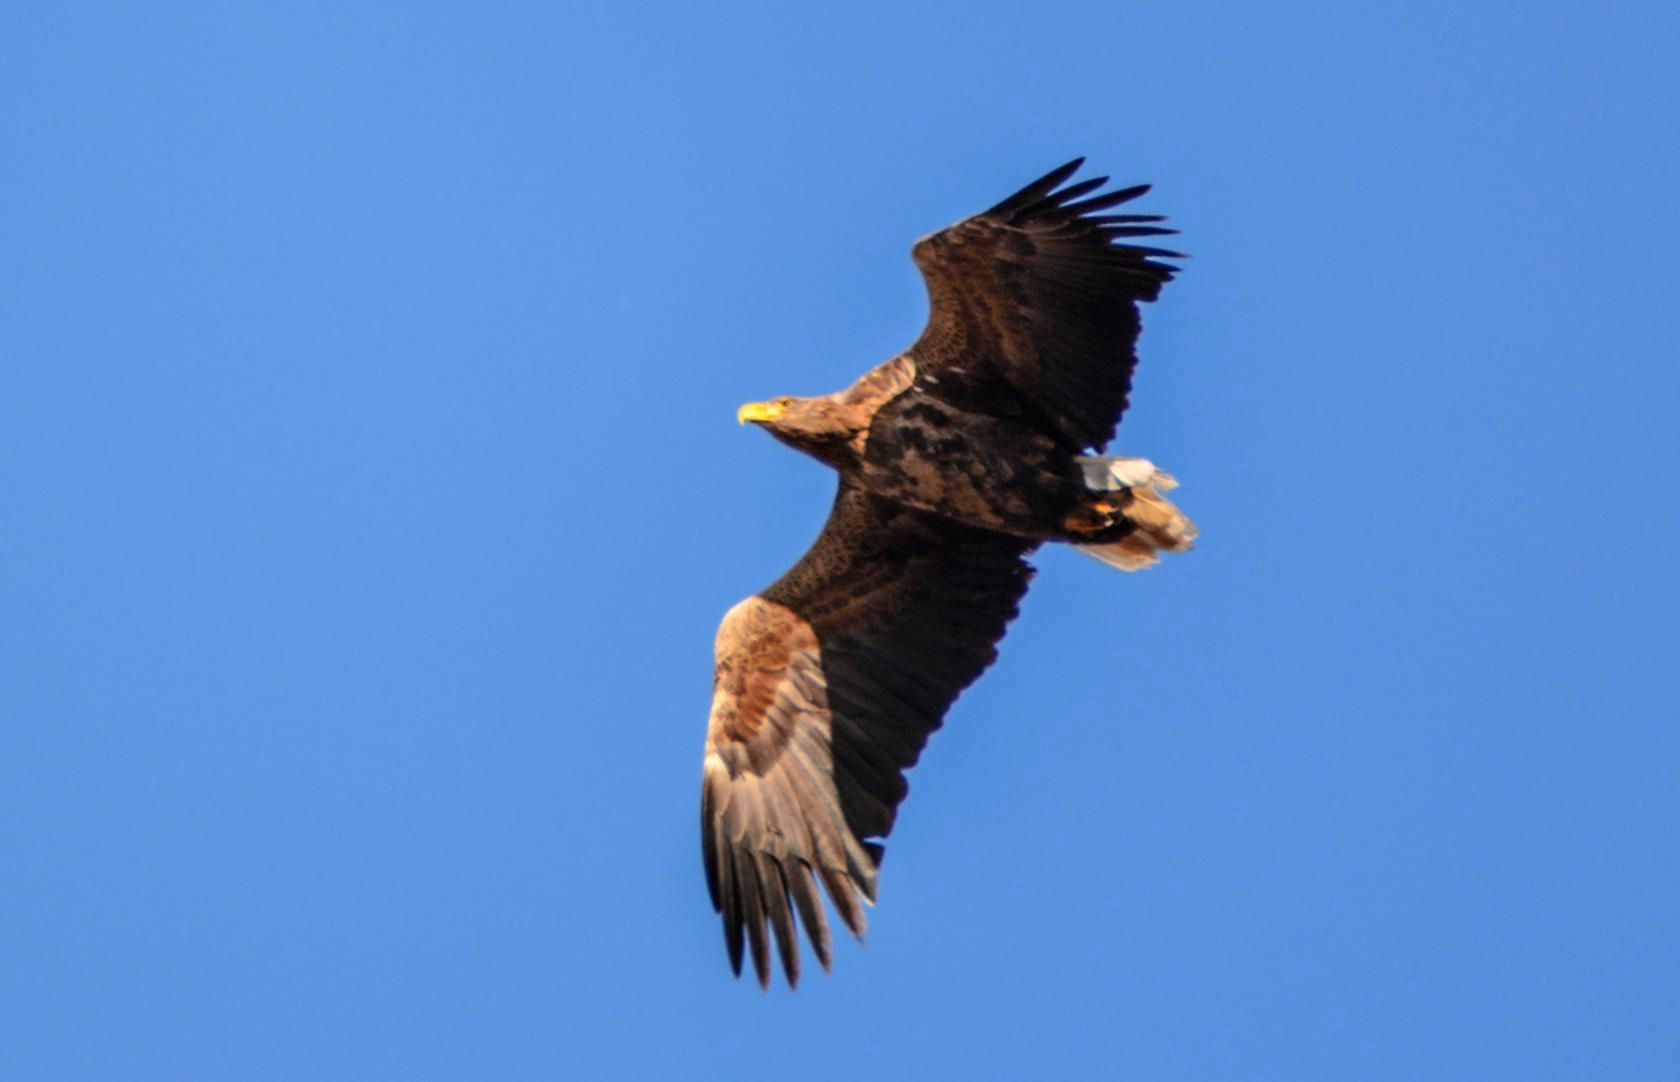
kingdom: Animalia
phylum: Chordata
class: Aves
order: Accipitriformes
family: Accipitridae
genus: Haliaeetus
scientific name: Haliaeetus albicilla
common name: White-tailed eagle
